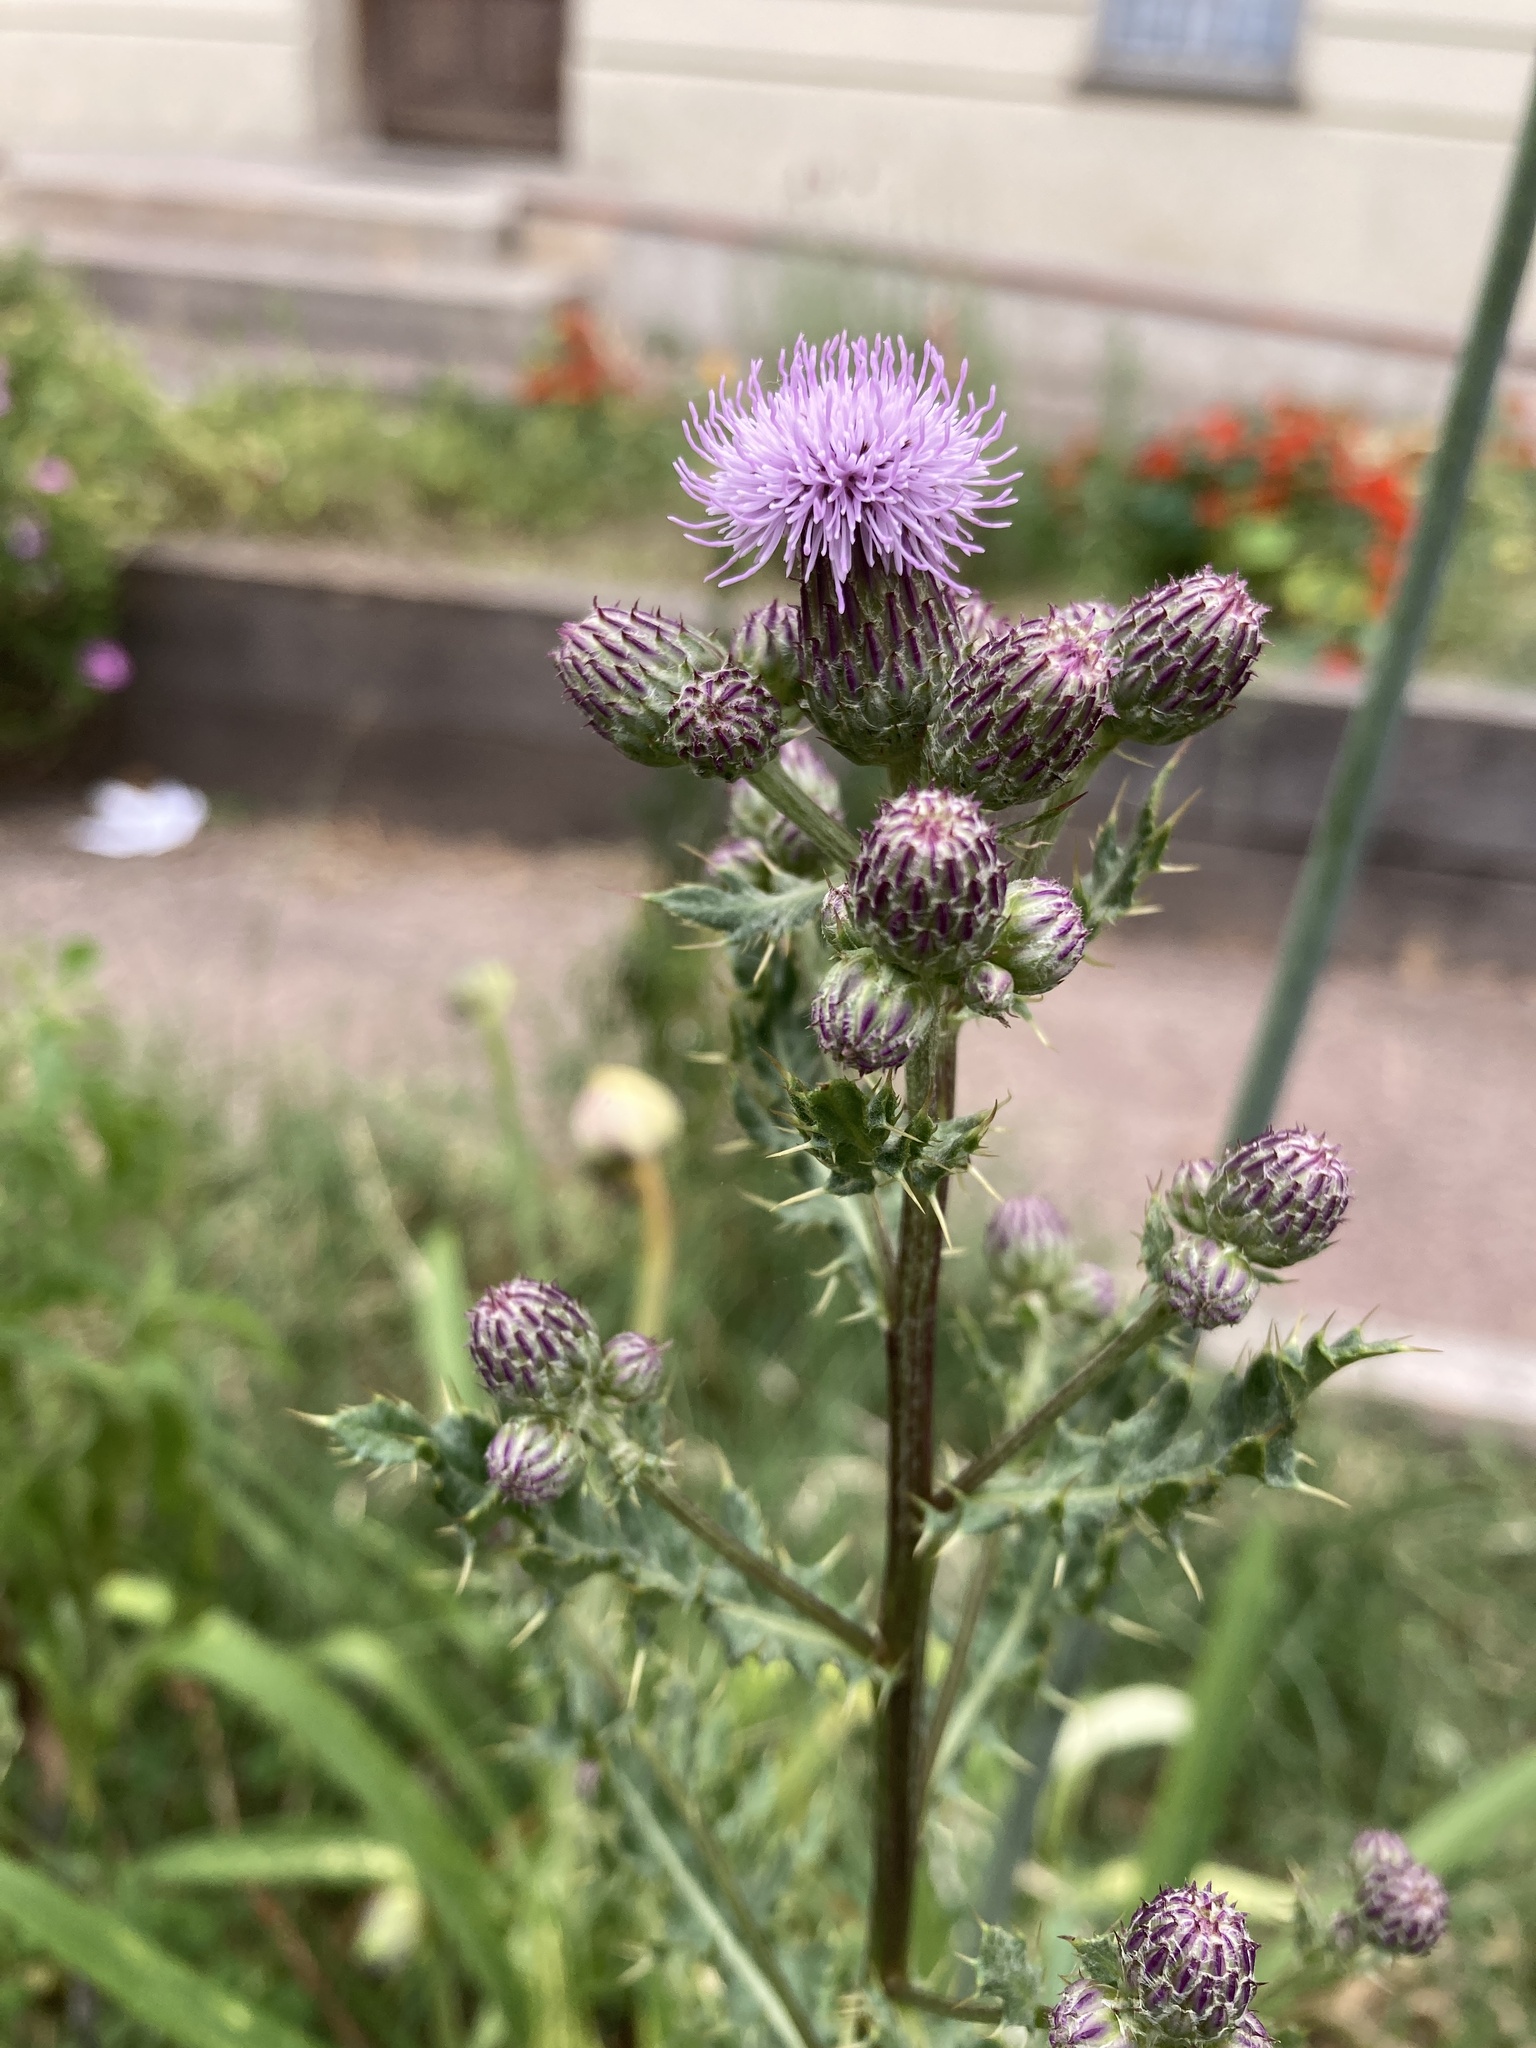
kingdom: Plantae
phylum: Tracheophyta
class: Magnoliopsida
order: Asterales
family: Asteraceae
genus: Cirsium
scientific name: Cirsium arvense
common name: Creeping thistle
